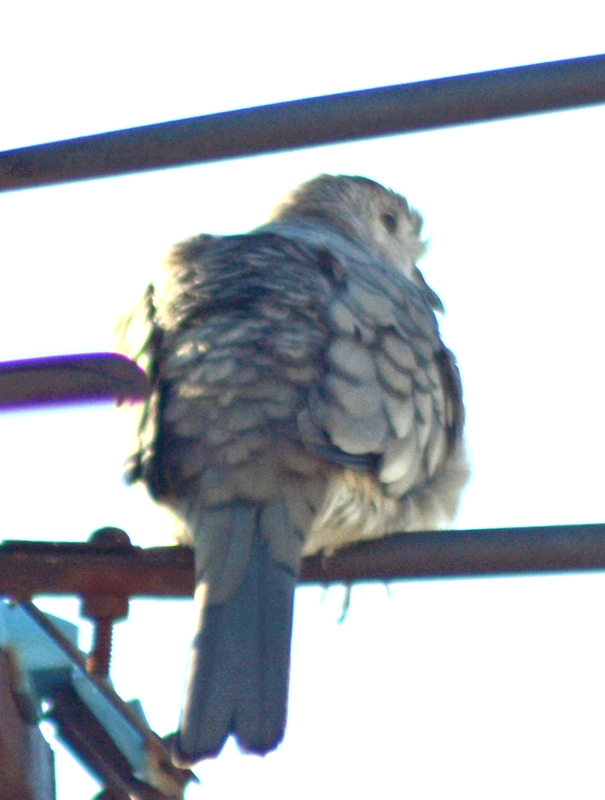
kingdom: Animalia
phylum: Chordata
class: Aves
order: Columbiformes
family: Columbidae
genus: Columbina
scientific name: Columbina inca
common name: Inca dove
